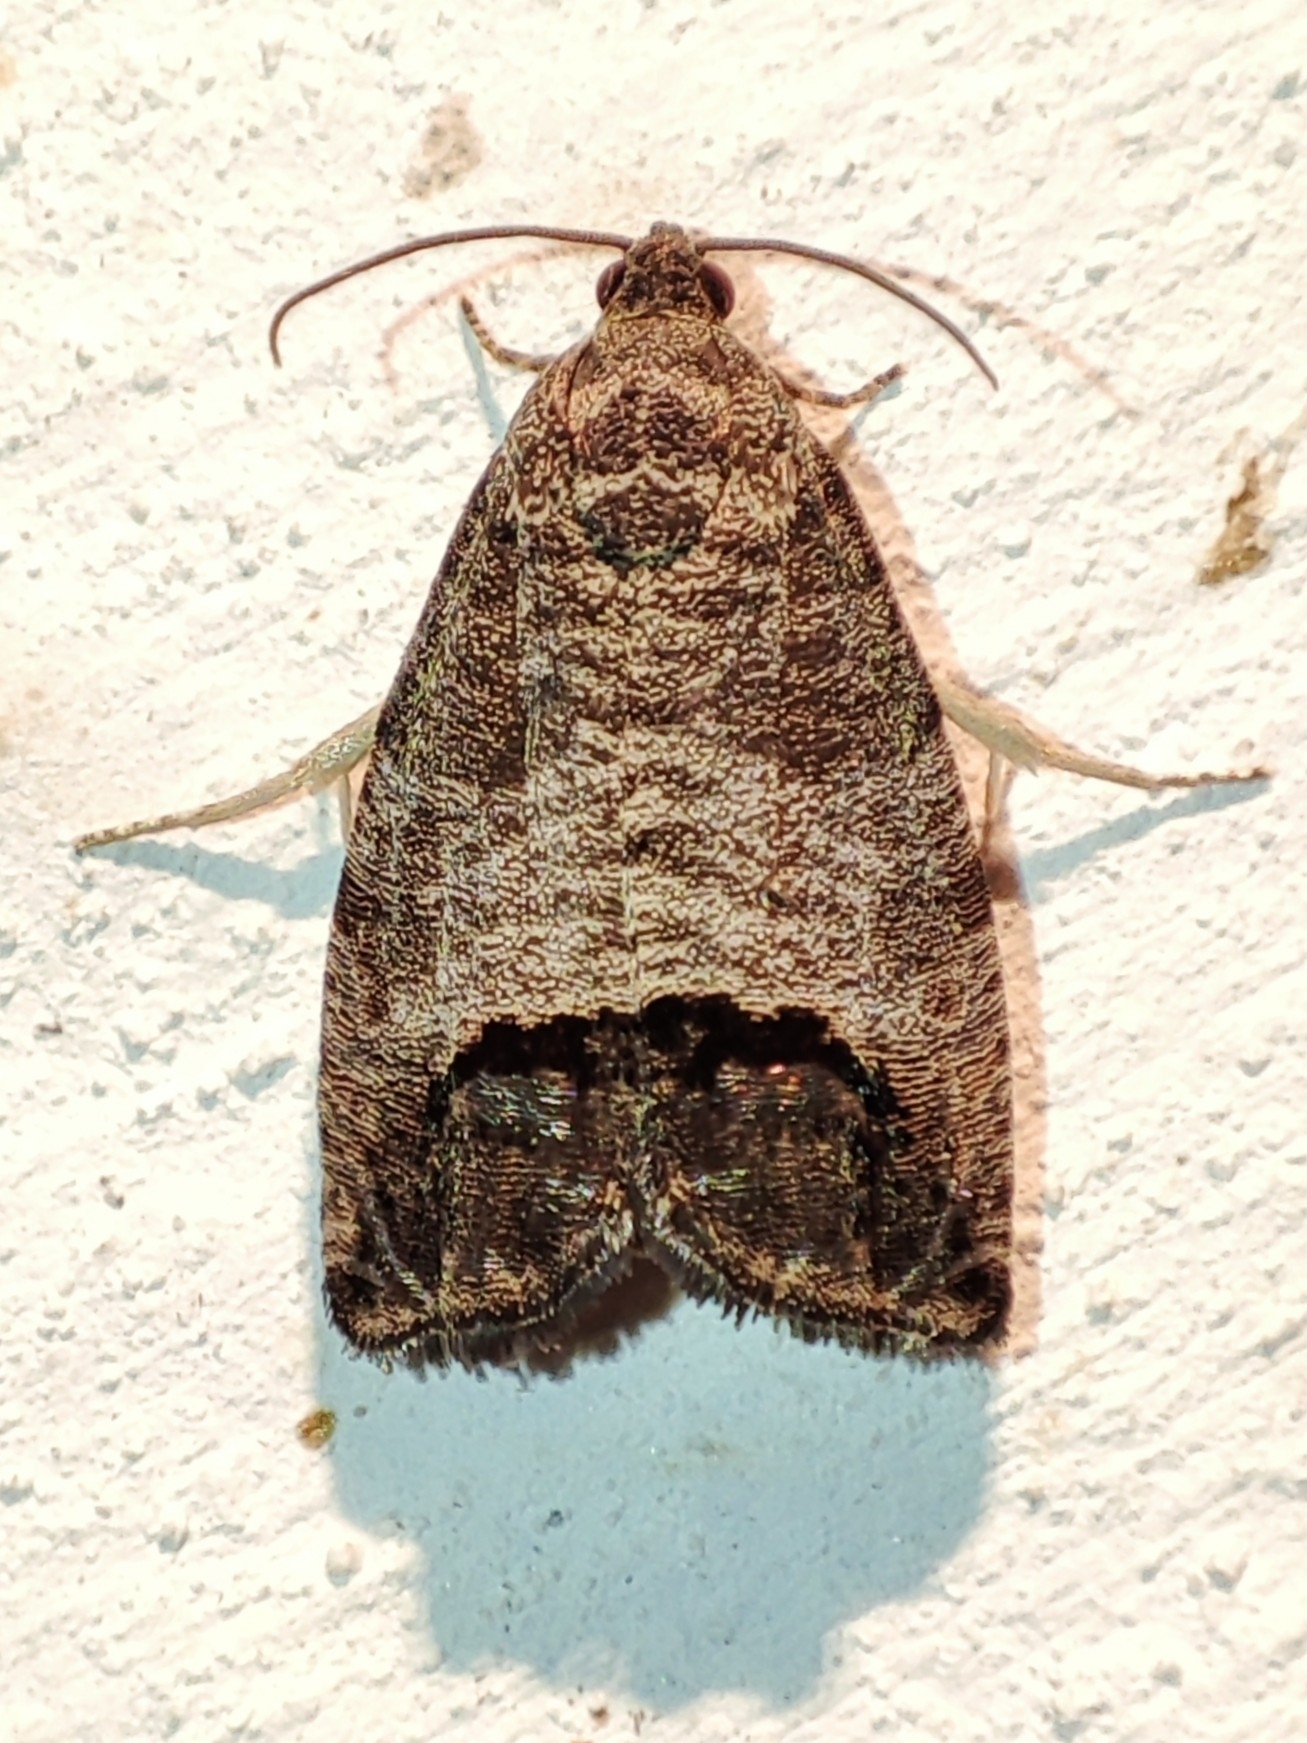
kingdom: Animalia
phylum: Arthropoda
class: Insecta
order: Lepidoptera
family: Tortricidae
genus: Cydia
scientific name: Cydia pomonella
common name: Codling moth
